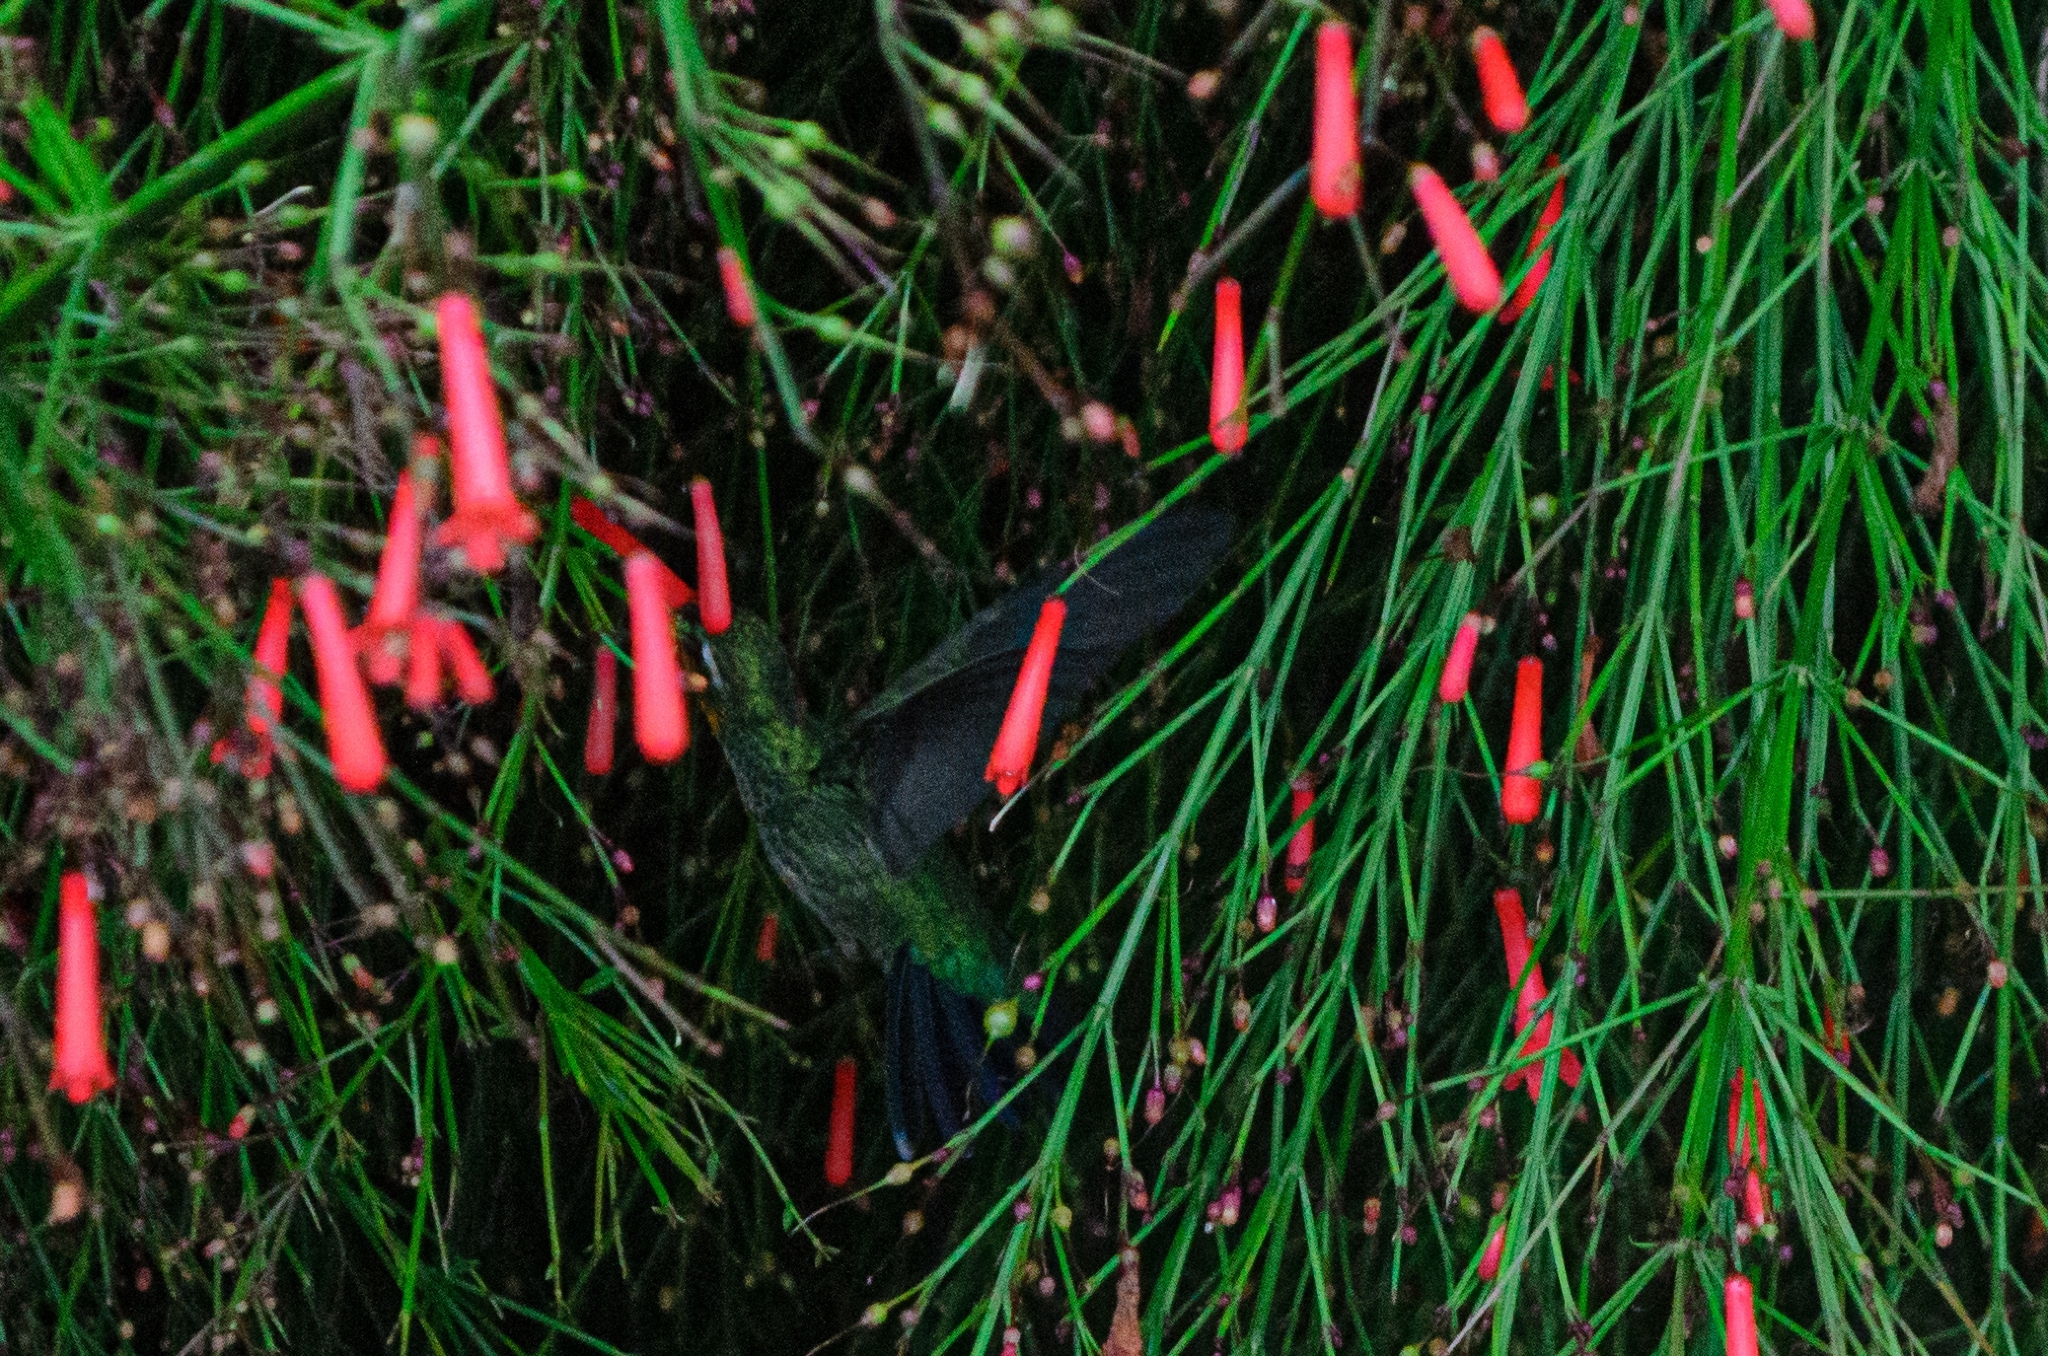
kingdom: Animalia
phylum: Chordata
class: Aves
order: Apodiformes
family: Trochilidae
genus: Chlorostilbon
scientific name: Chlorostilbon lucidus
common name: Glittering-bellied emerald
